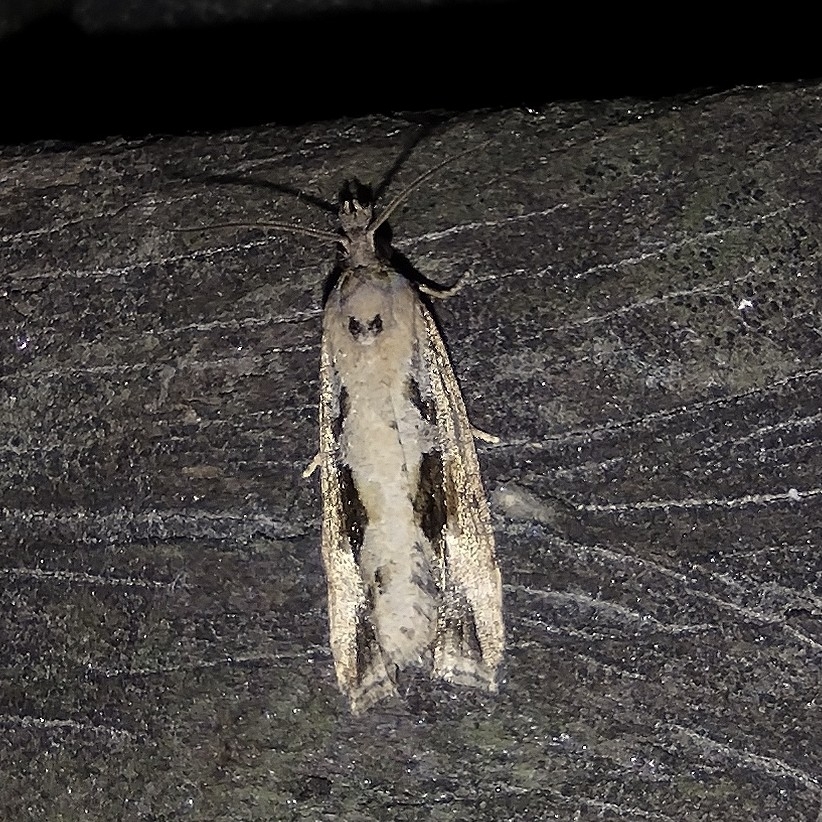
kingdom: Animalia
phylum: Arthropoda
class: Insecta
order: Lepidoptera
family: Tortricidae
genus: Endothenia
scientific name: Endothenia quadrimaculana
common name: Tortricid moth
